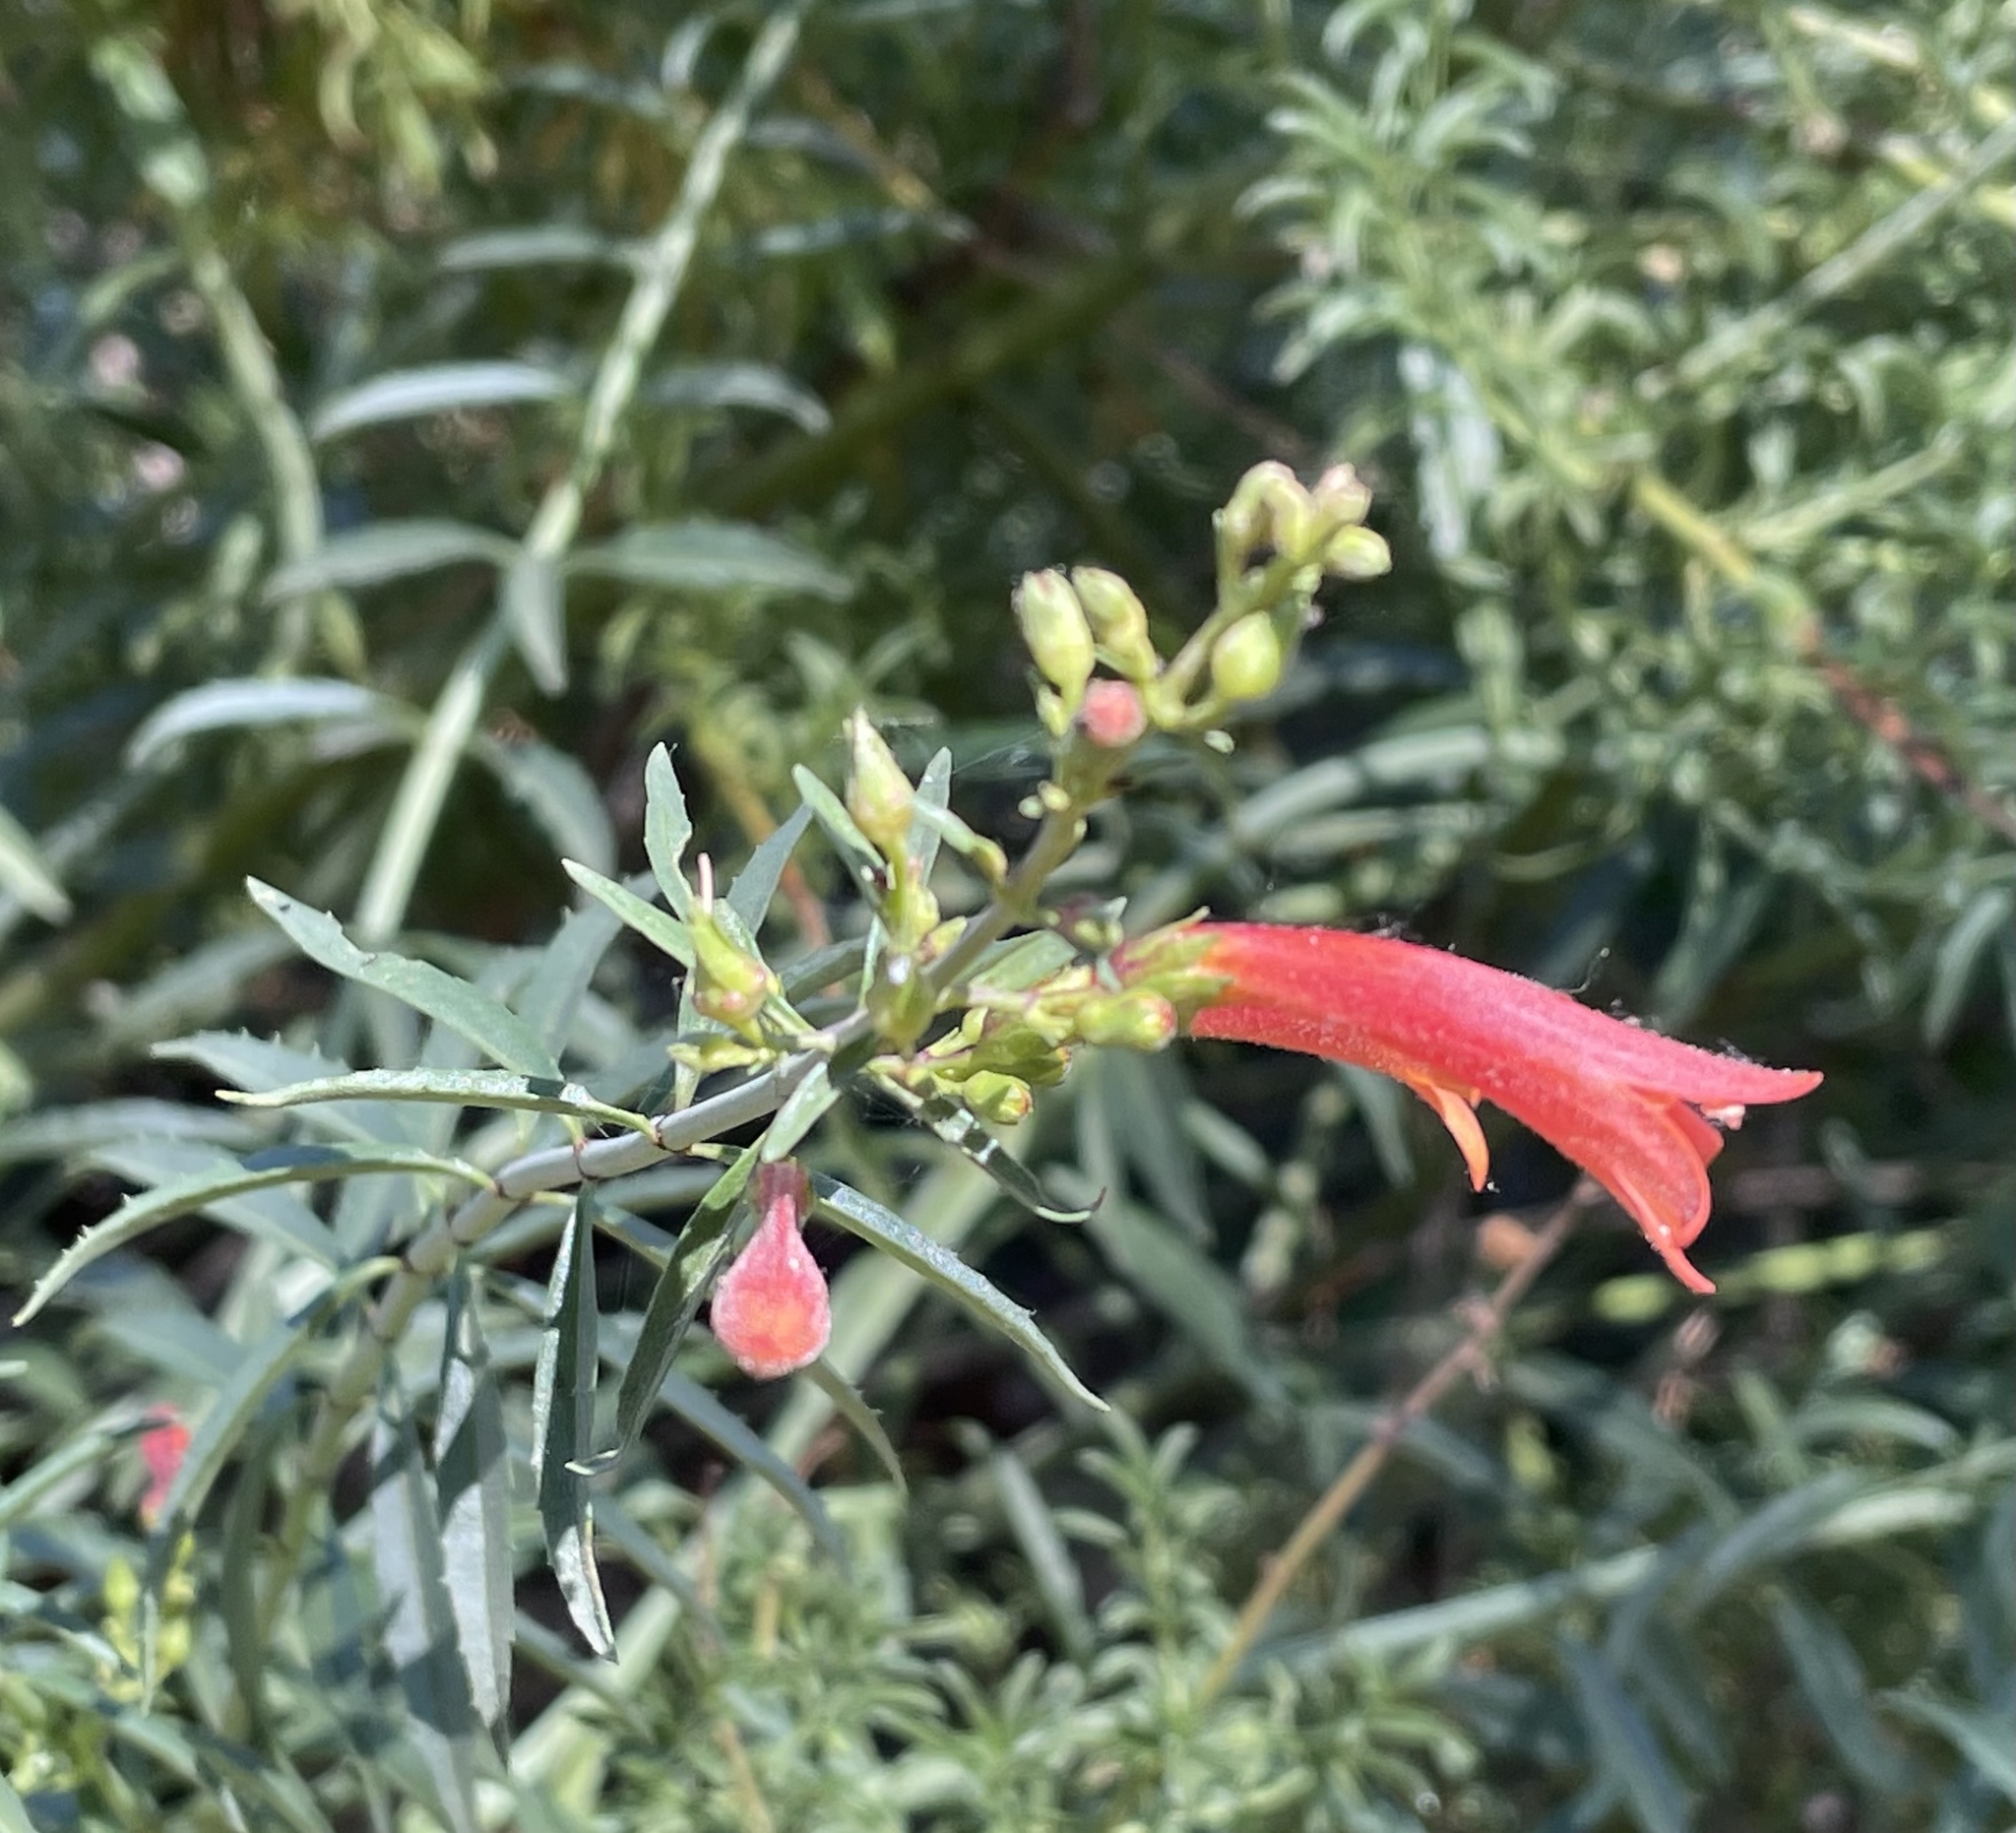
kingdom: Plantae
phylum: Tracheophyta
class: Magnoliopsida
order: Lamiales
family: Plantaginaceae
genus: Keckiella
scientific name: Keckiella ternata
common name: Scarlet keckiella
